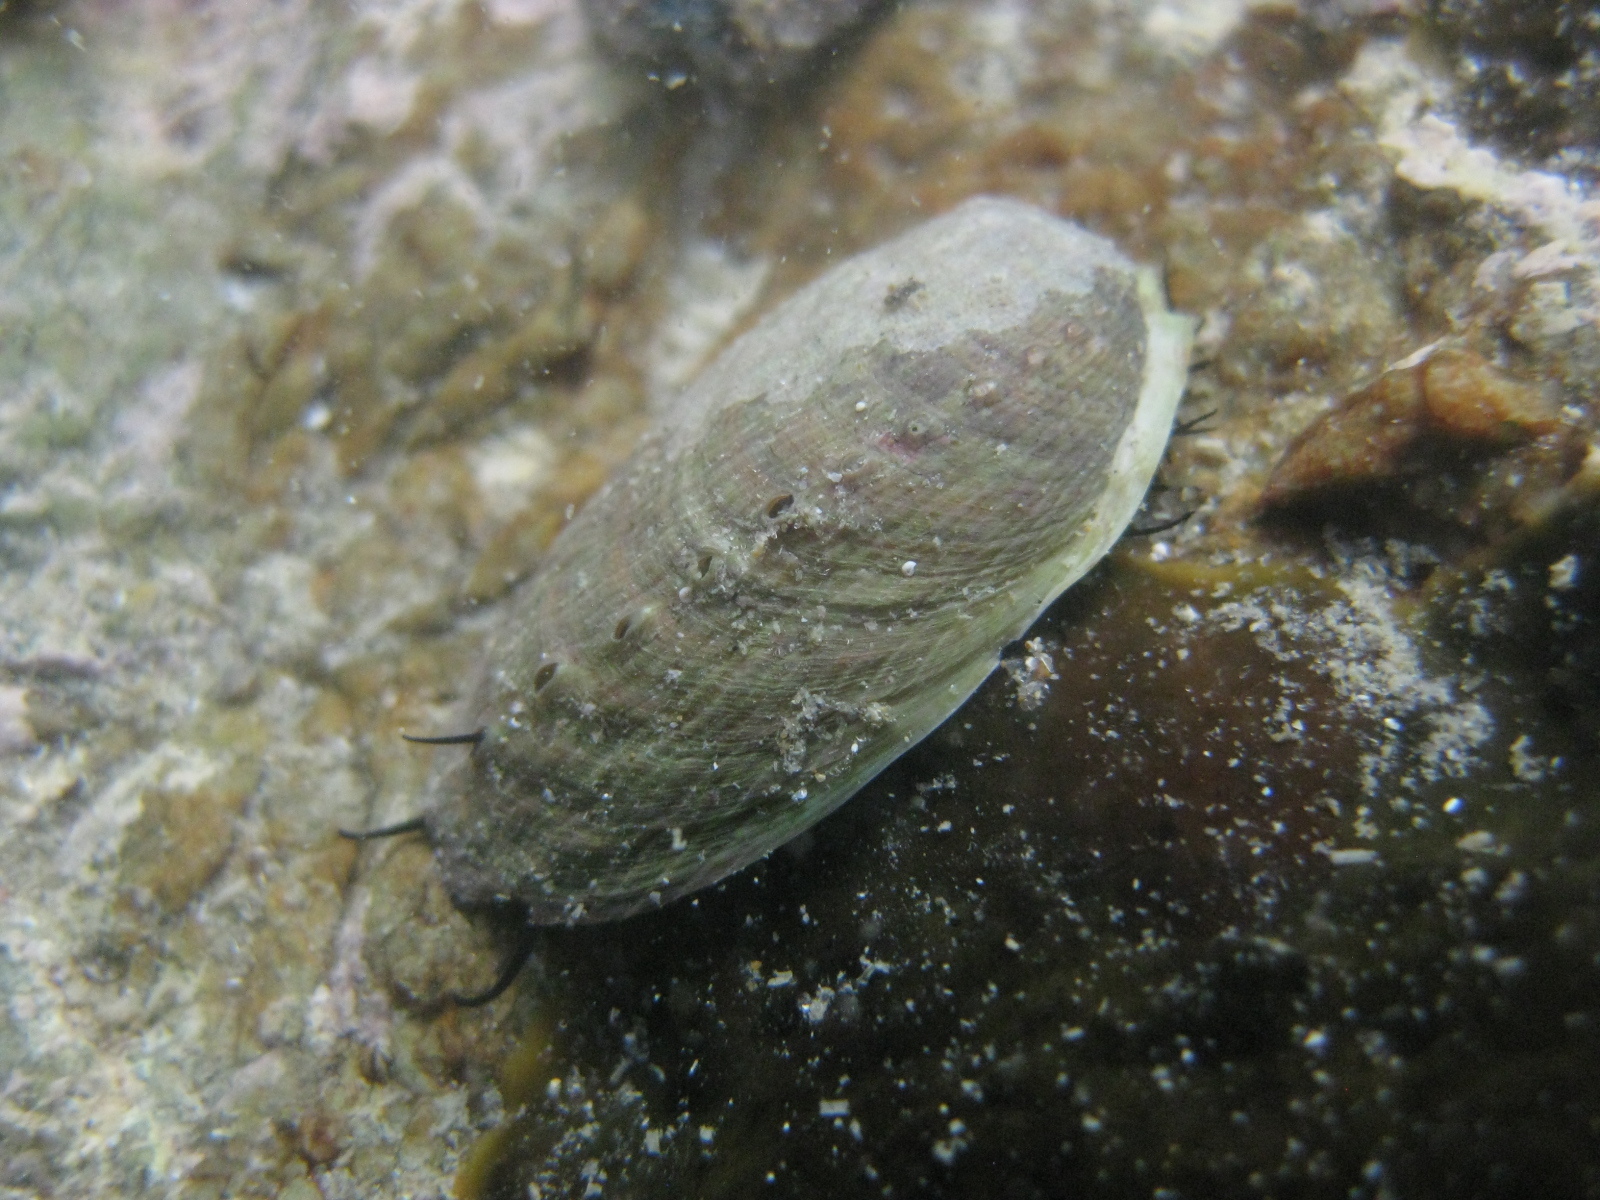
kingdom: Animalia
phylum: Mollusca
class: Gastropoda
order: Lepetellida
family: Haliotidae
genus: Haliotis
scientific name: Haliotis iris
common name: Abalone
